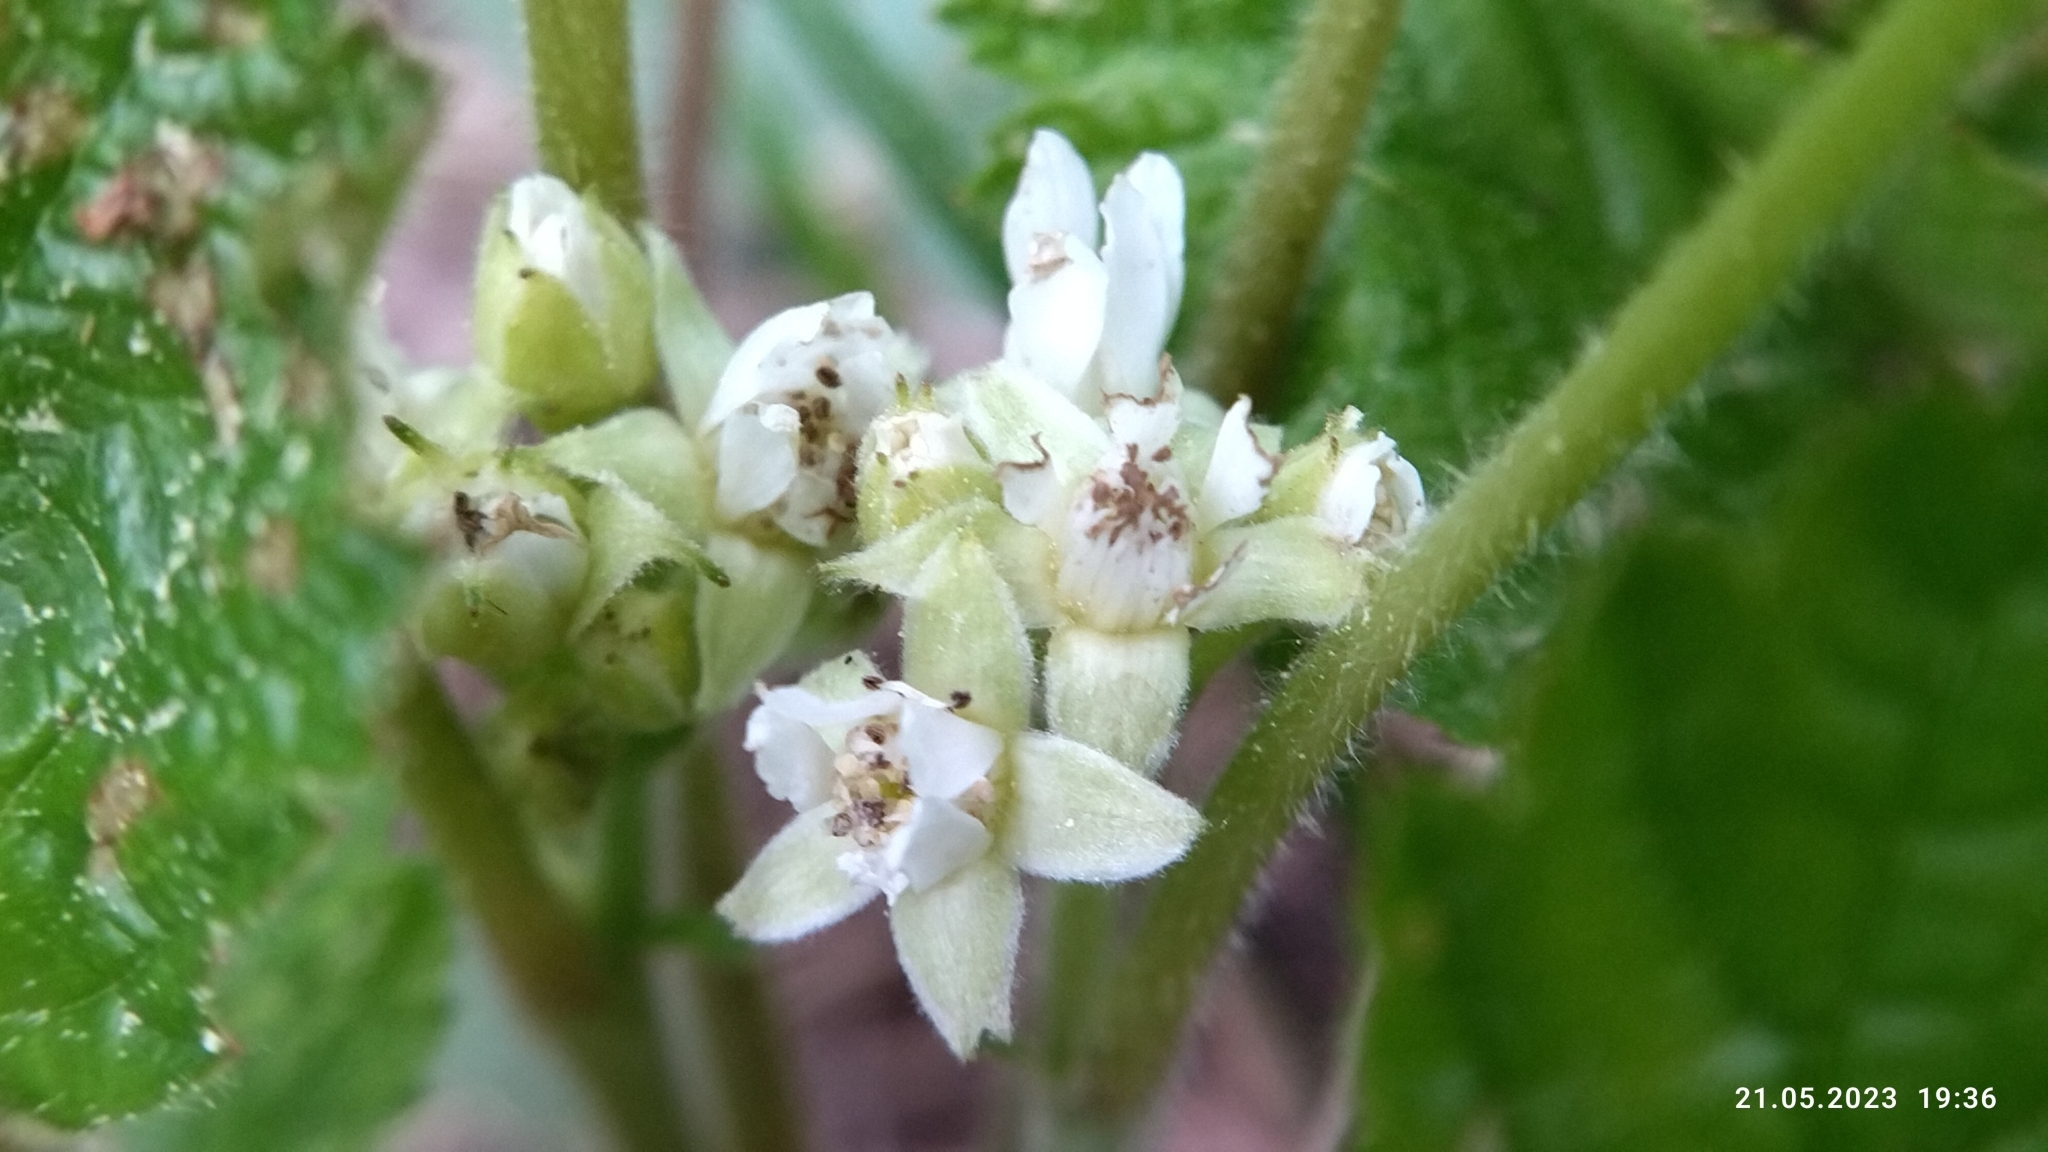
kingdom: Plantae
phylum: Tracheophyta
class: Magnoliopsida
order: Rosales
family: Rosaceae
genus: Rubus
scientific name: Rubus saxatilis
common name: Stone bramble
